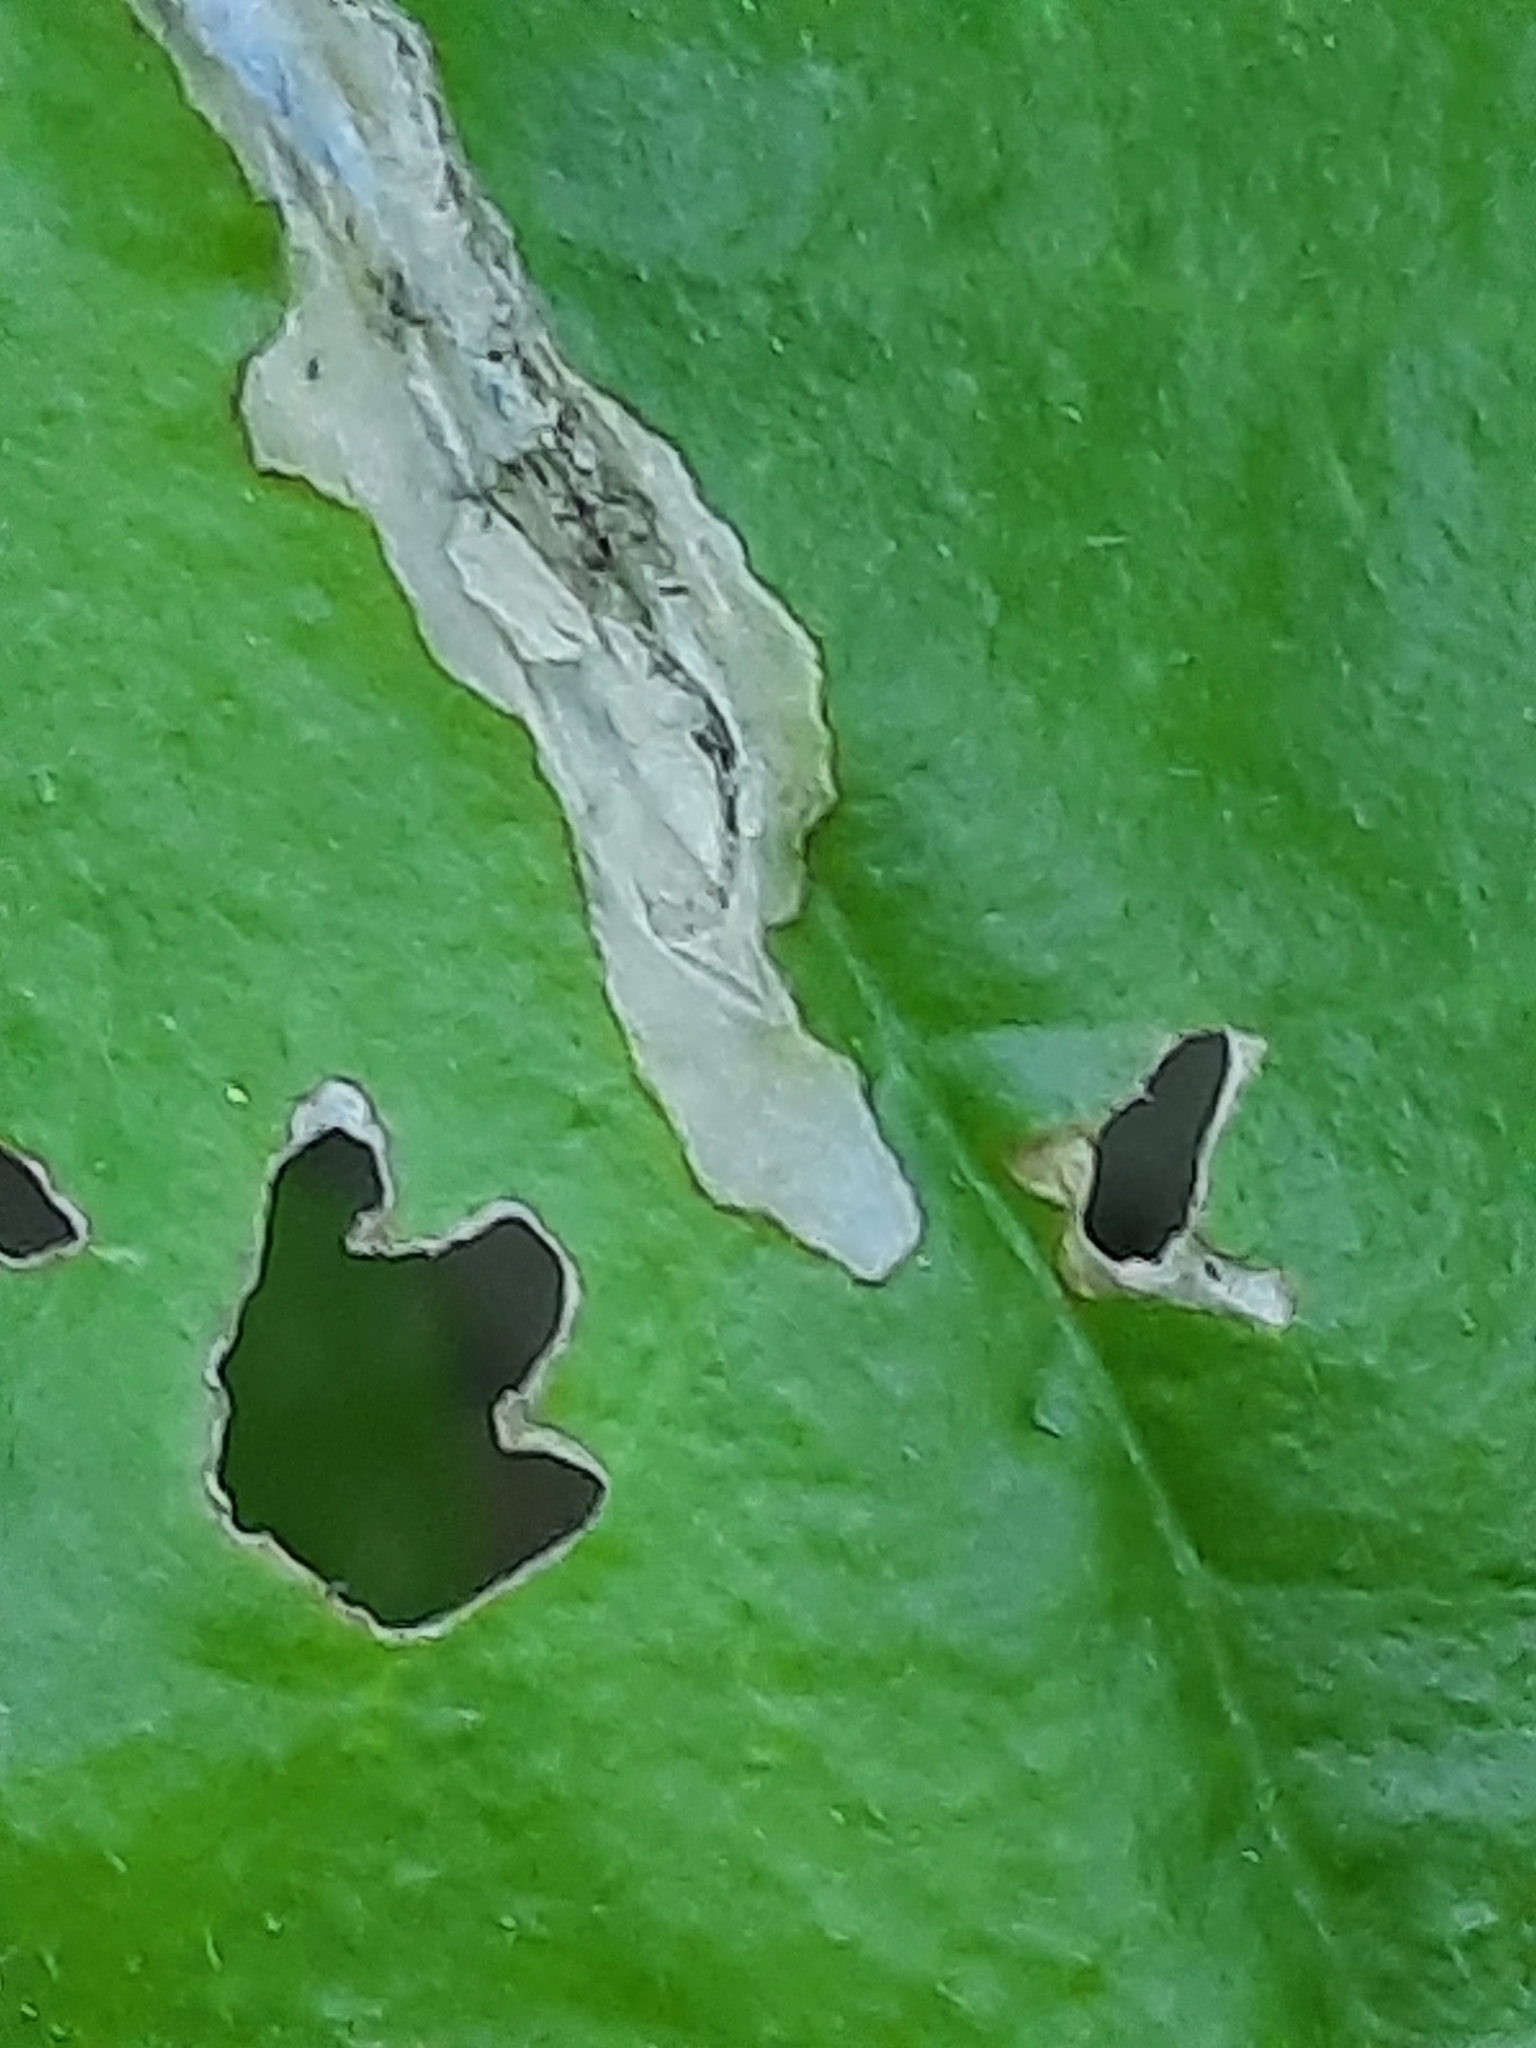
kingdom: Animalia
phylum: Arthropoda
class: Insecta
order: Coleoptera
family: Chrysomelidae
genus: Dibolia
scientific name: Dibolia borealis
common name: Northern plantain flea beetle
